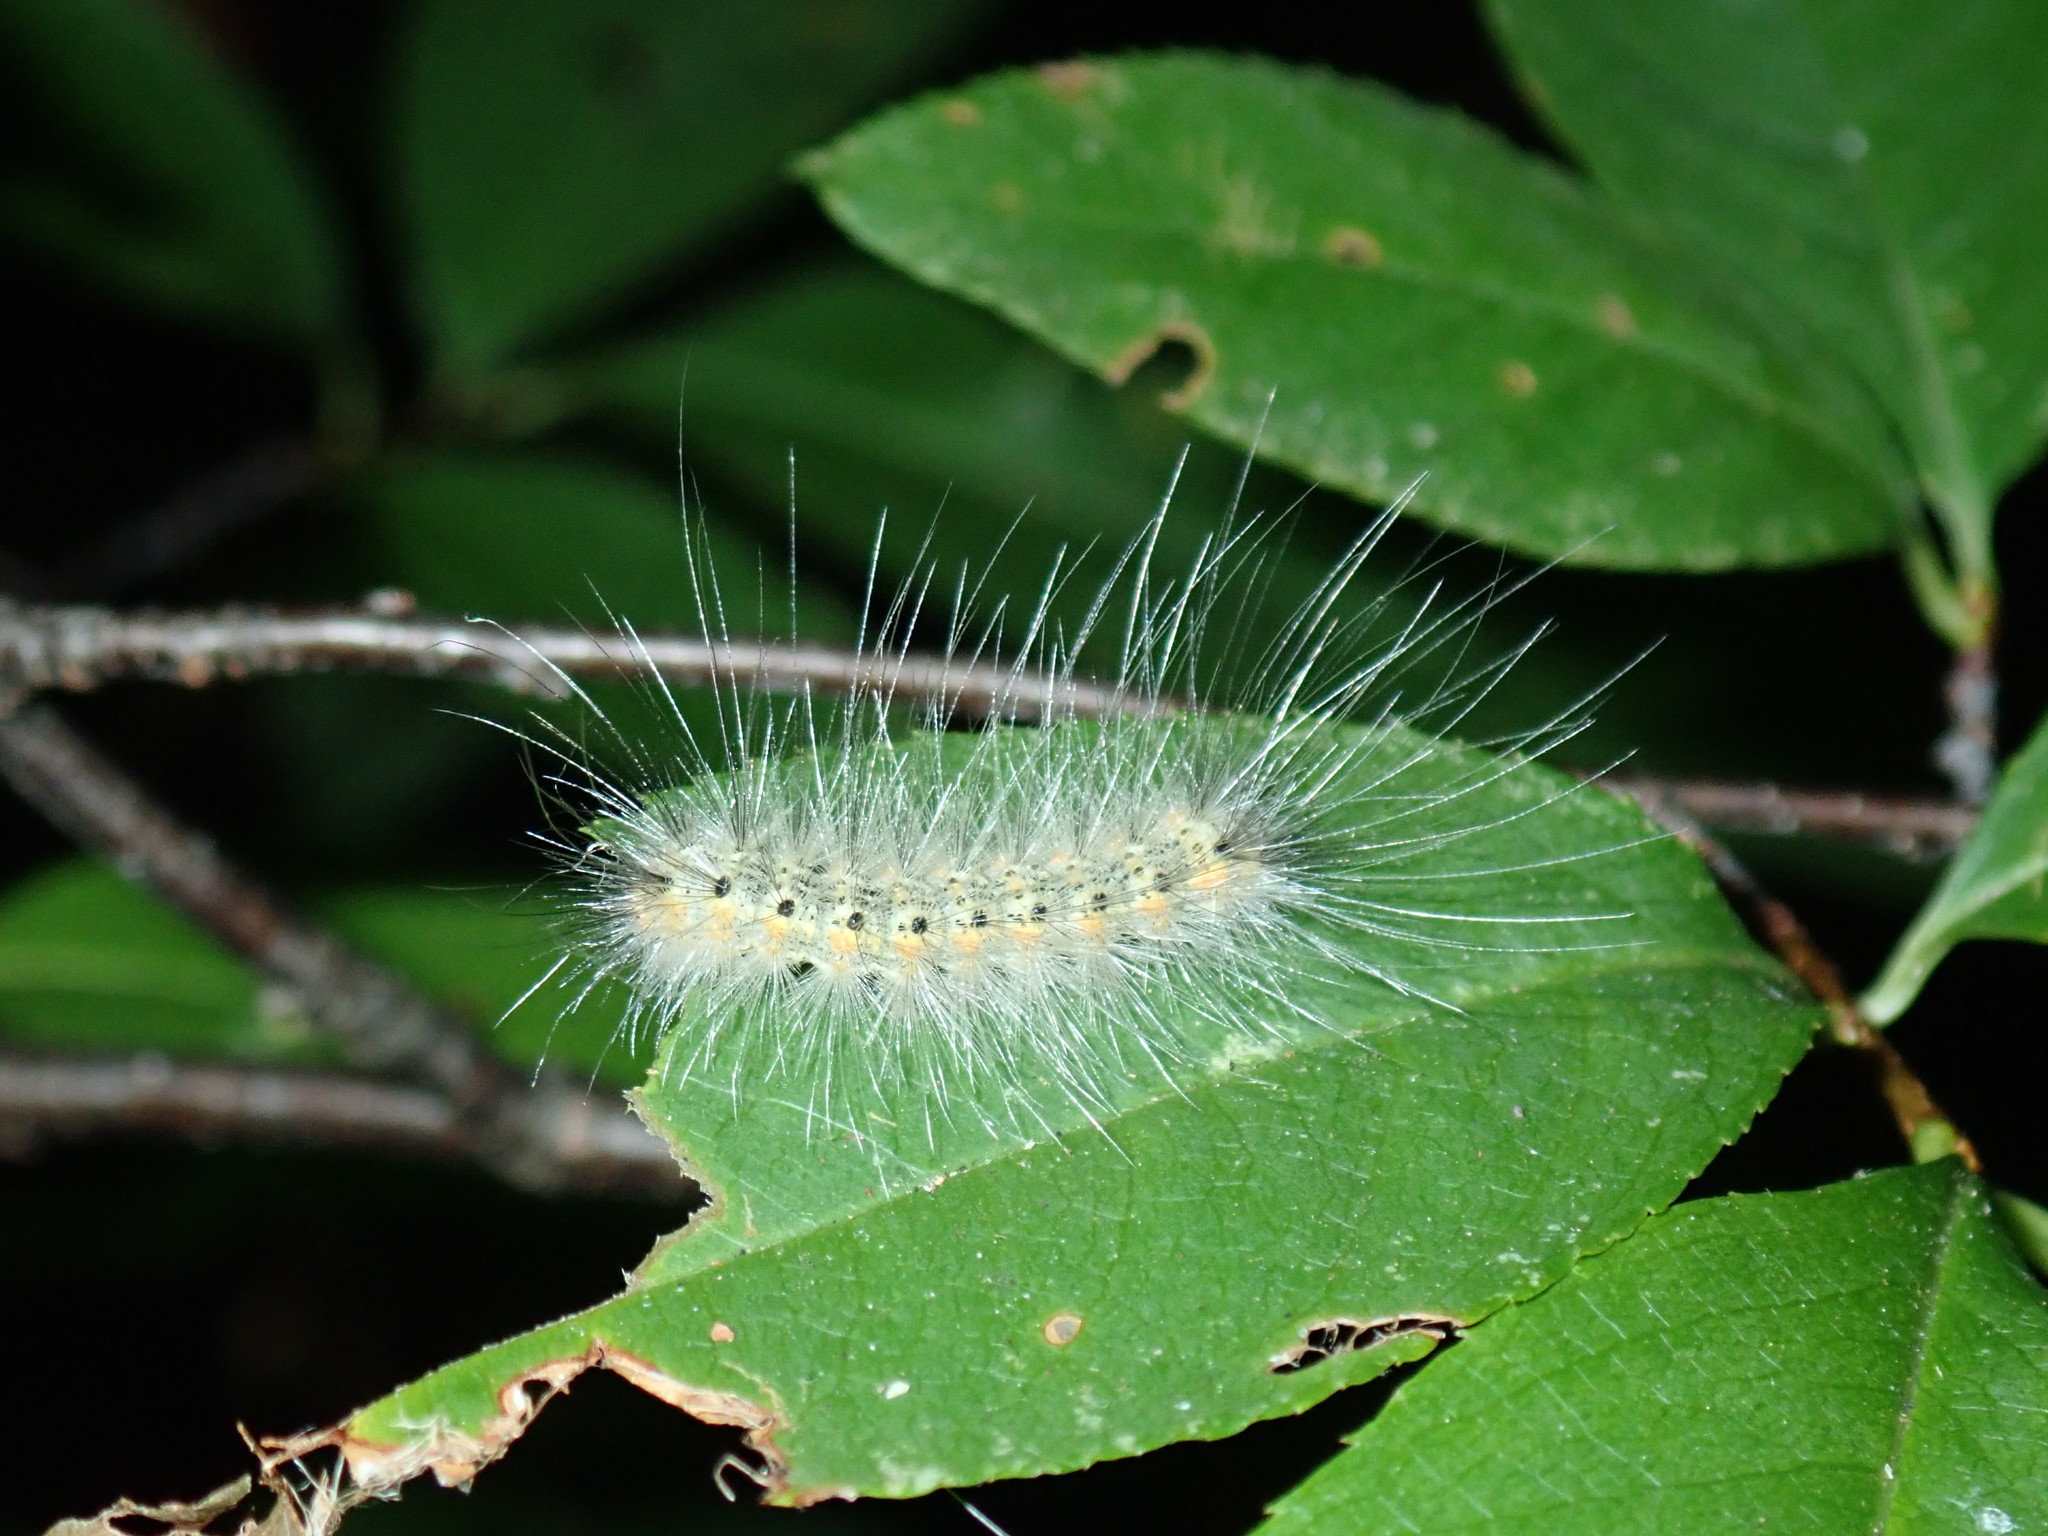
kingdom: Animalia
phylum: Arthropoda
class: Insecta
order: Lepidoptera
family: Erebidae
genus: Hyphantria
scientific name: Hyphantria cunea
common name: American white moth
